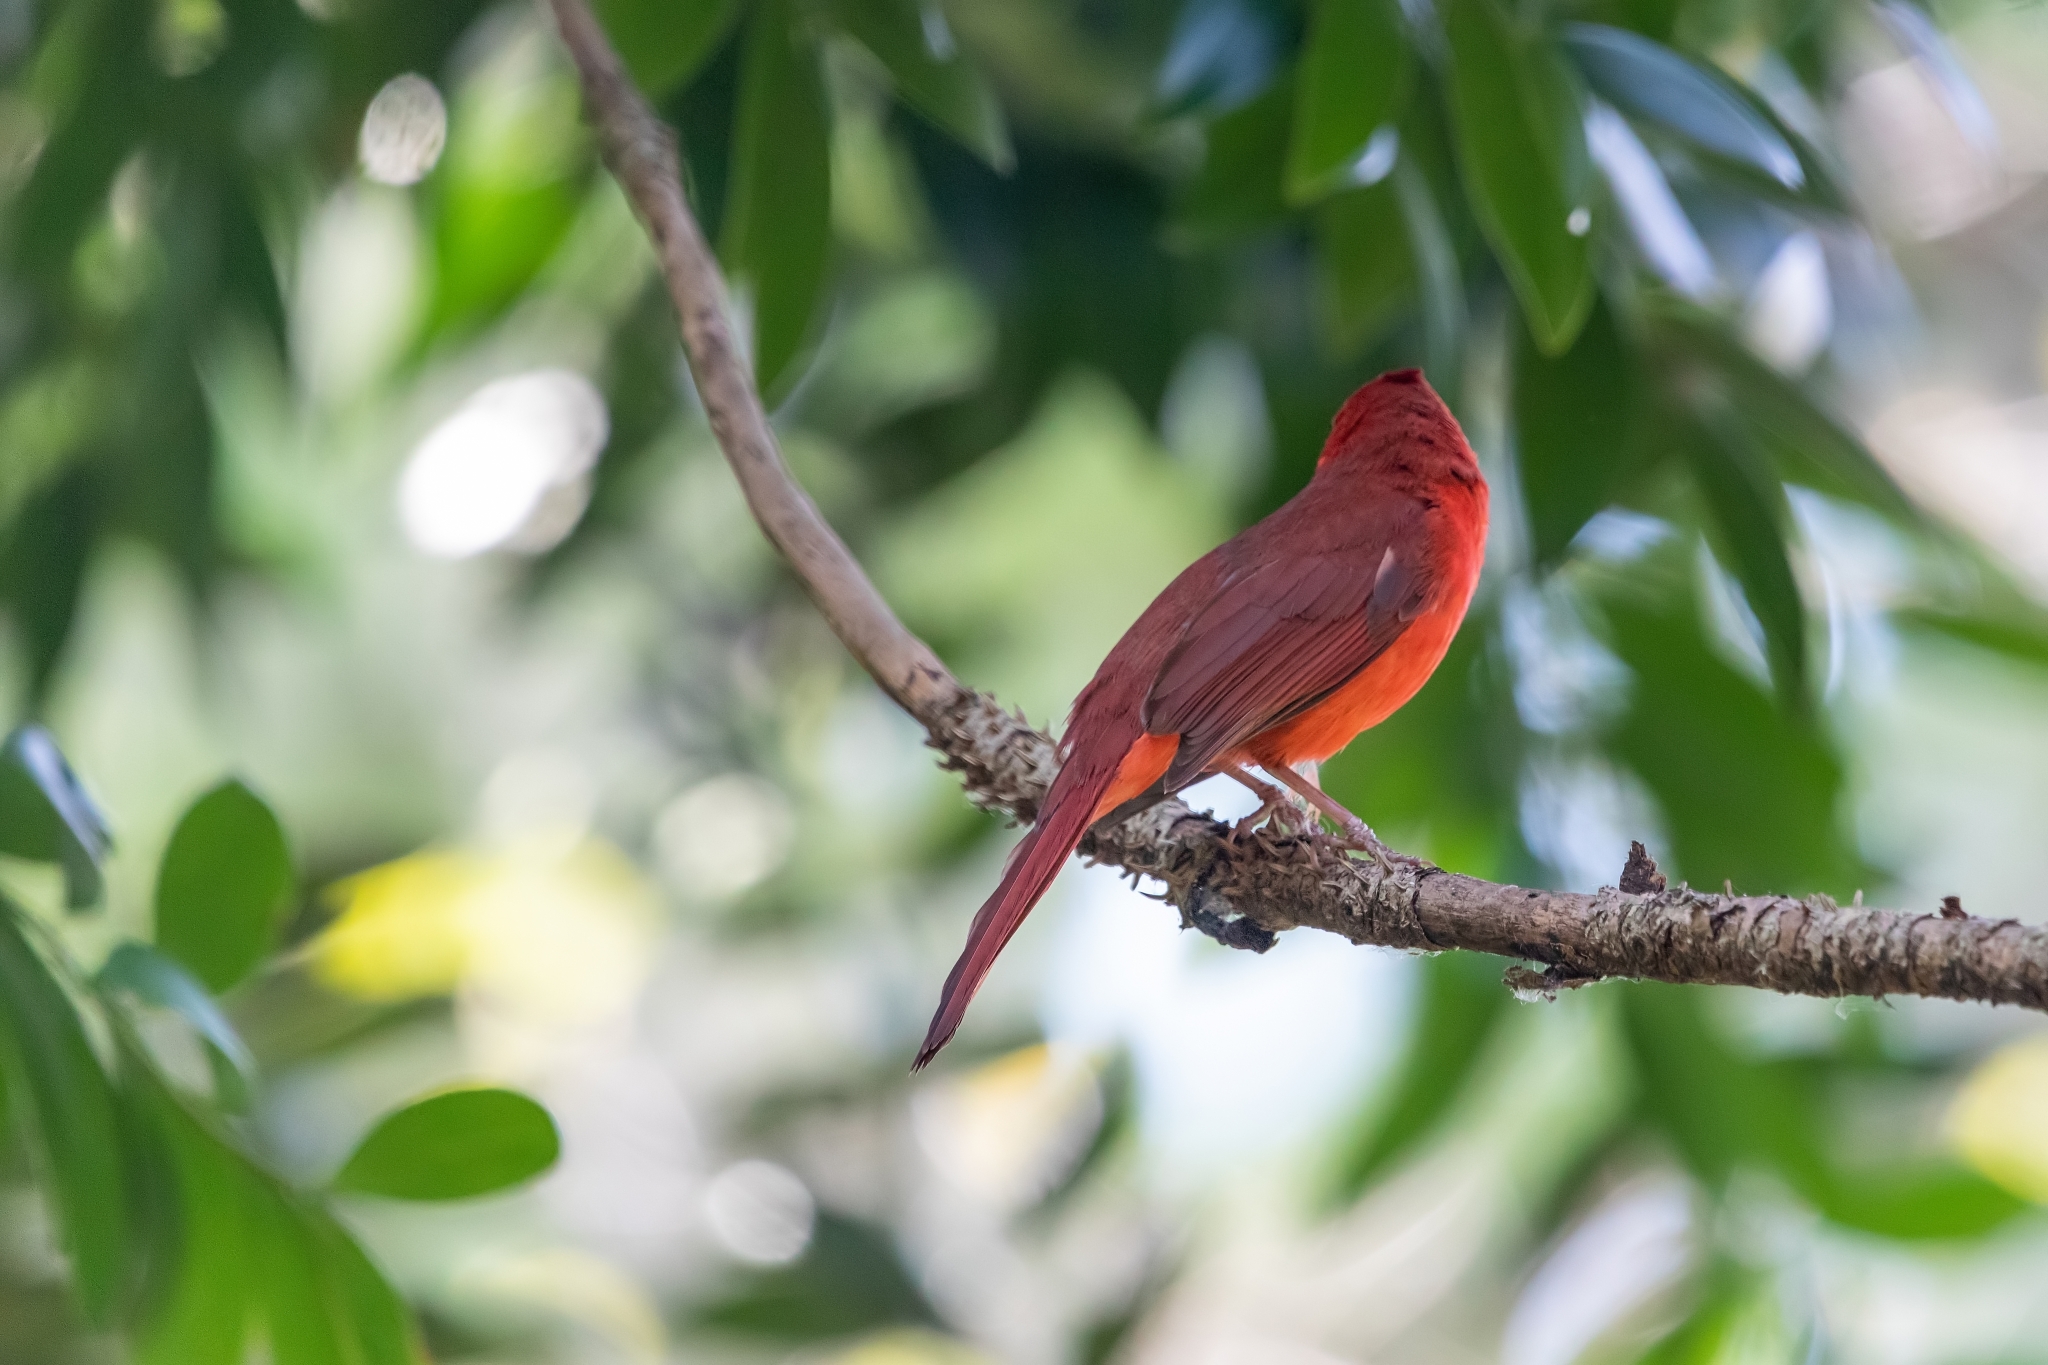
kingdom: Animalia
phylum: Chordata
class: Aves
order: Passeriformes
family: Cardinalidae
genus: Cardinalis
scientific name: Cardinalis cardinalis
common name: Northern cardinal
